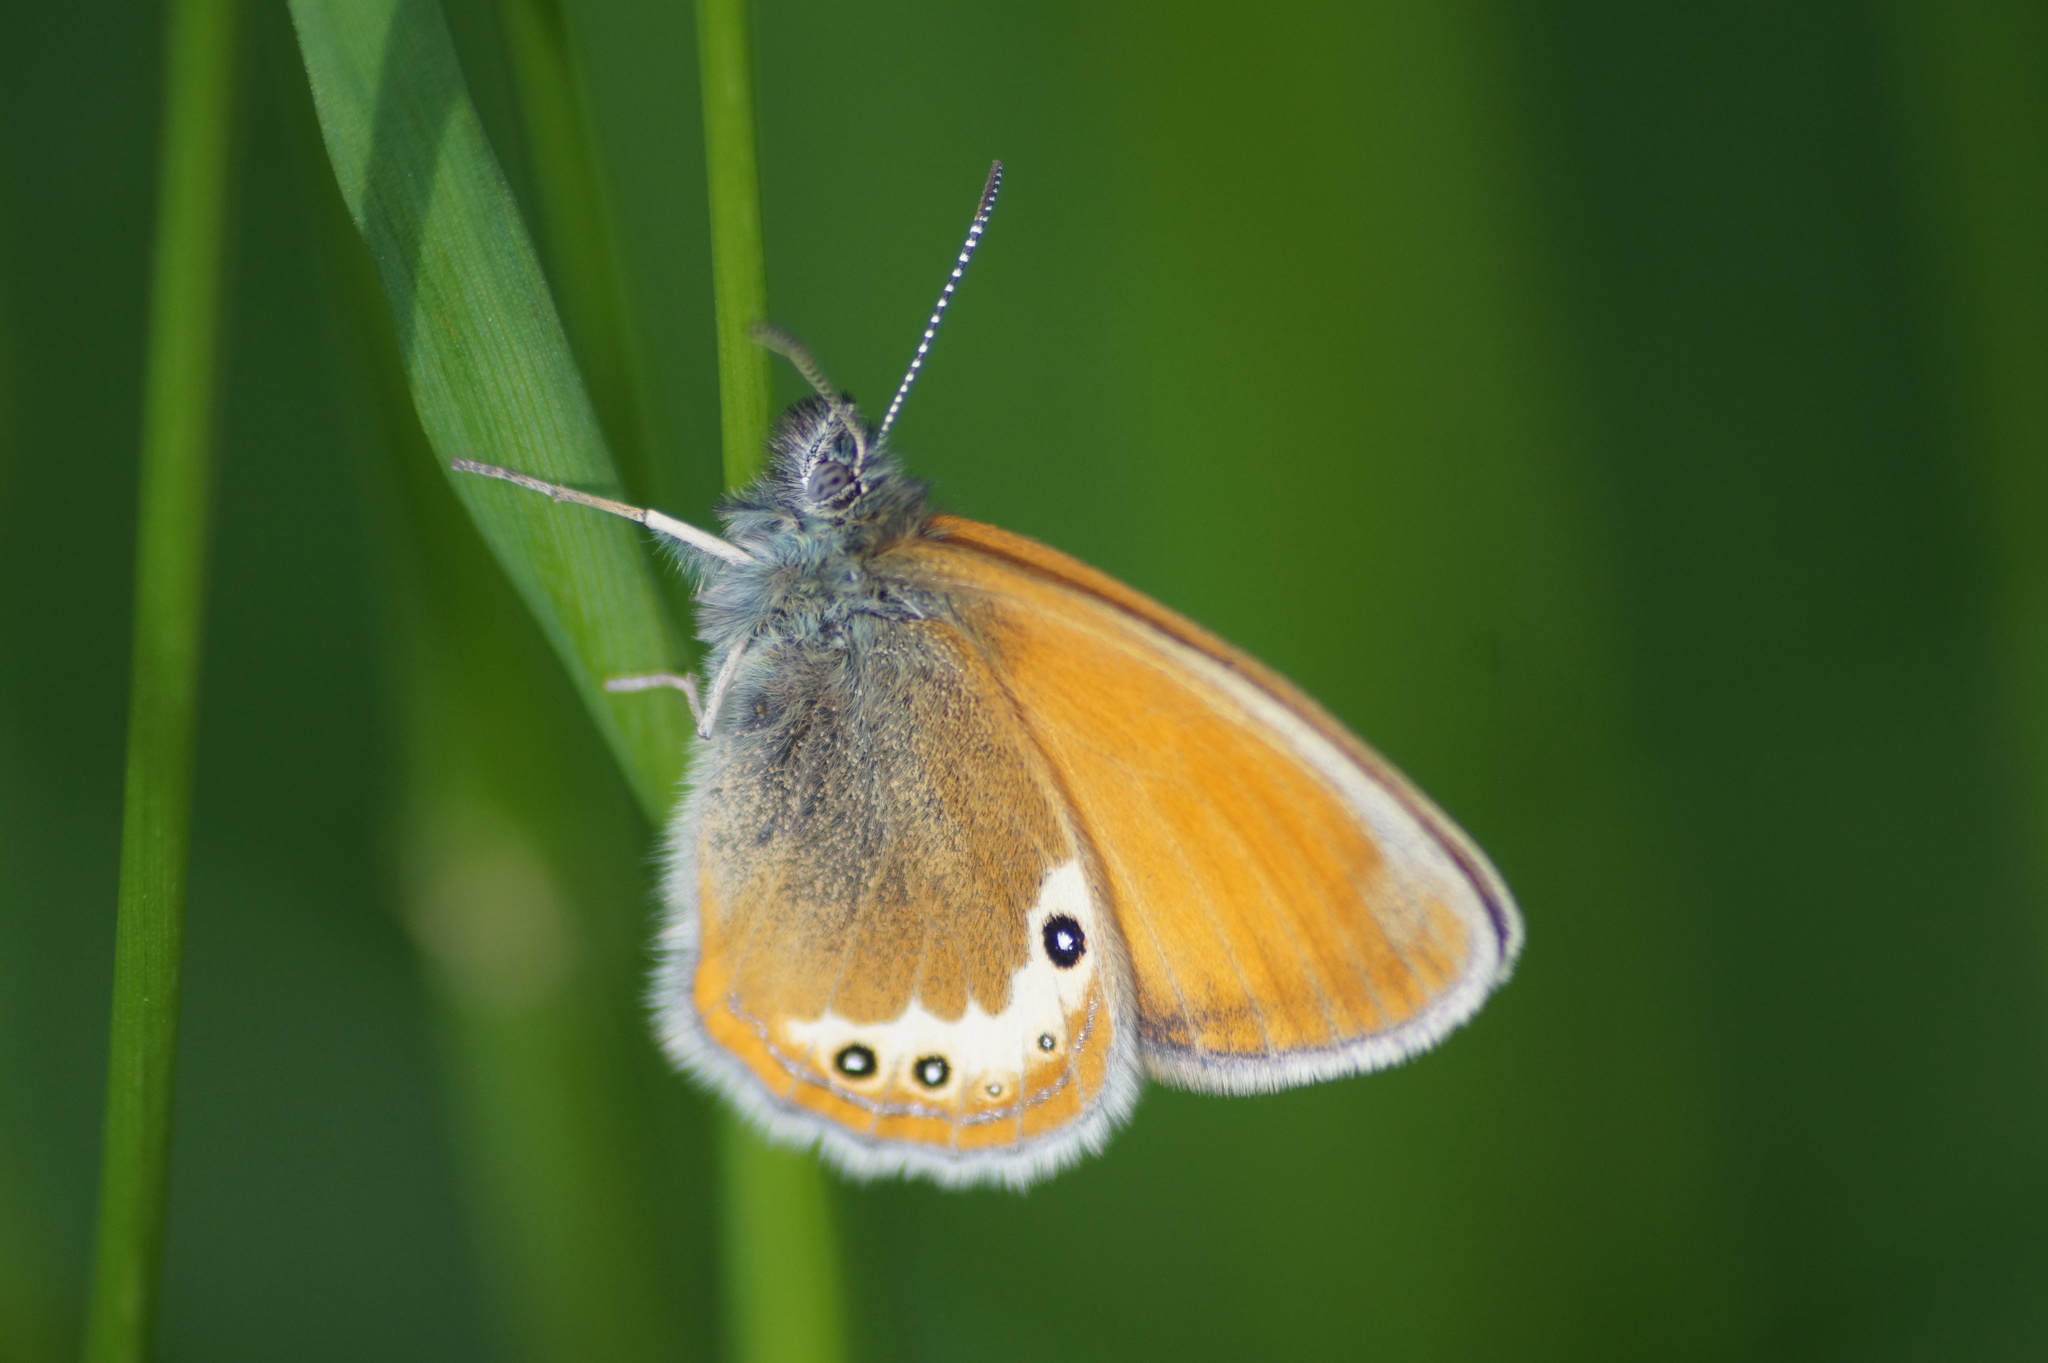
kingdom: Animalia
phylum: Arthropoda
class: Insecta
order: Lepidoptera
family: Nymphalidae
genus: Coenonympha
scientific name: Coenonympha
